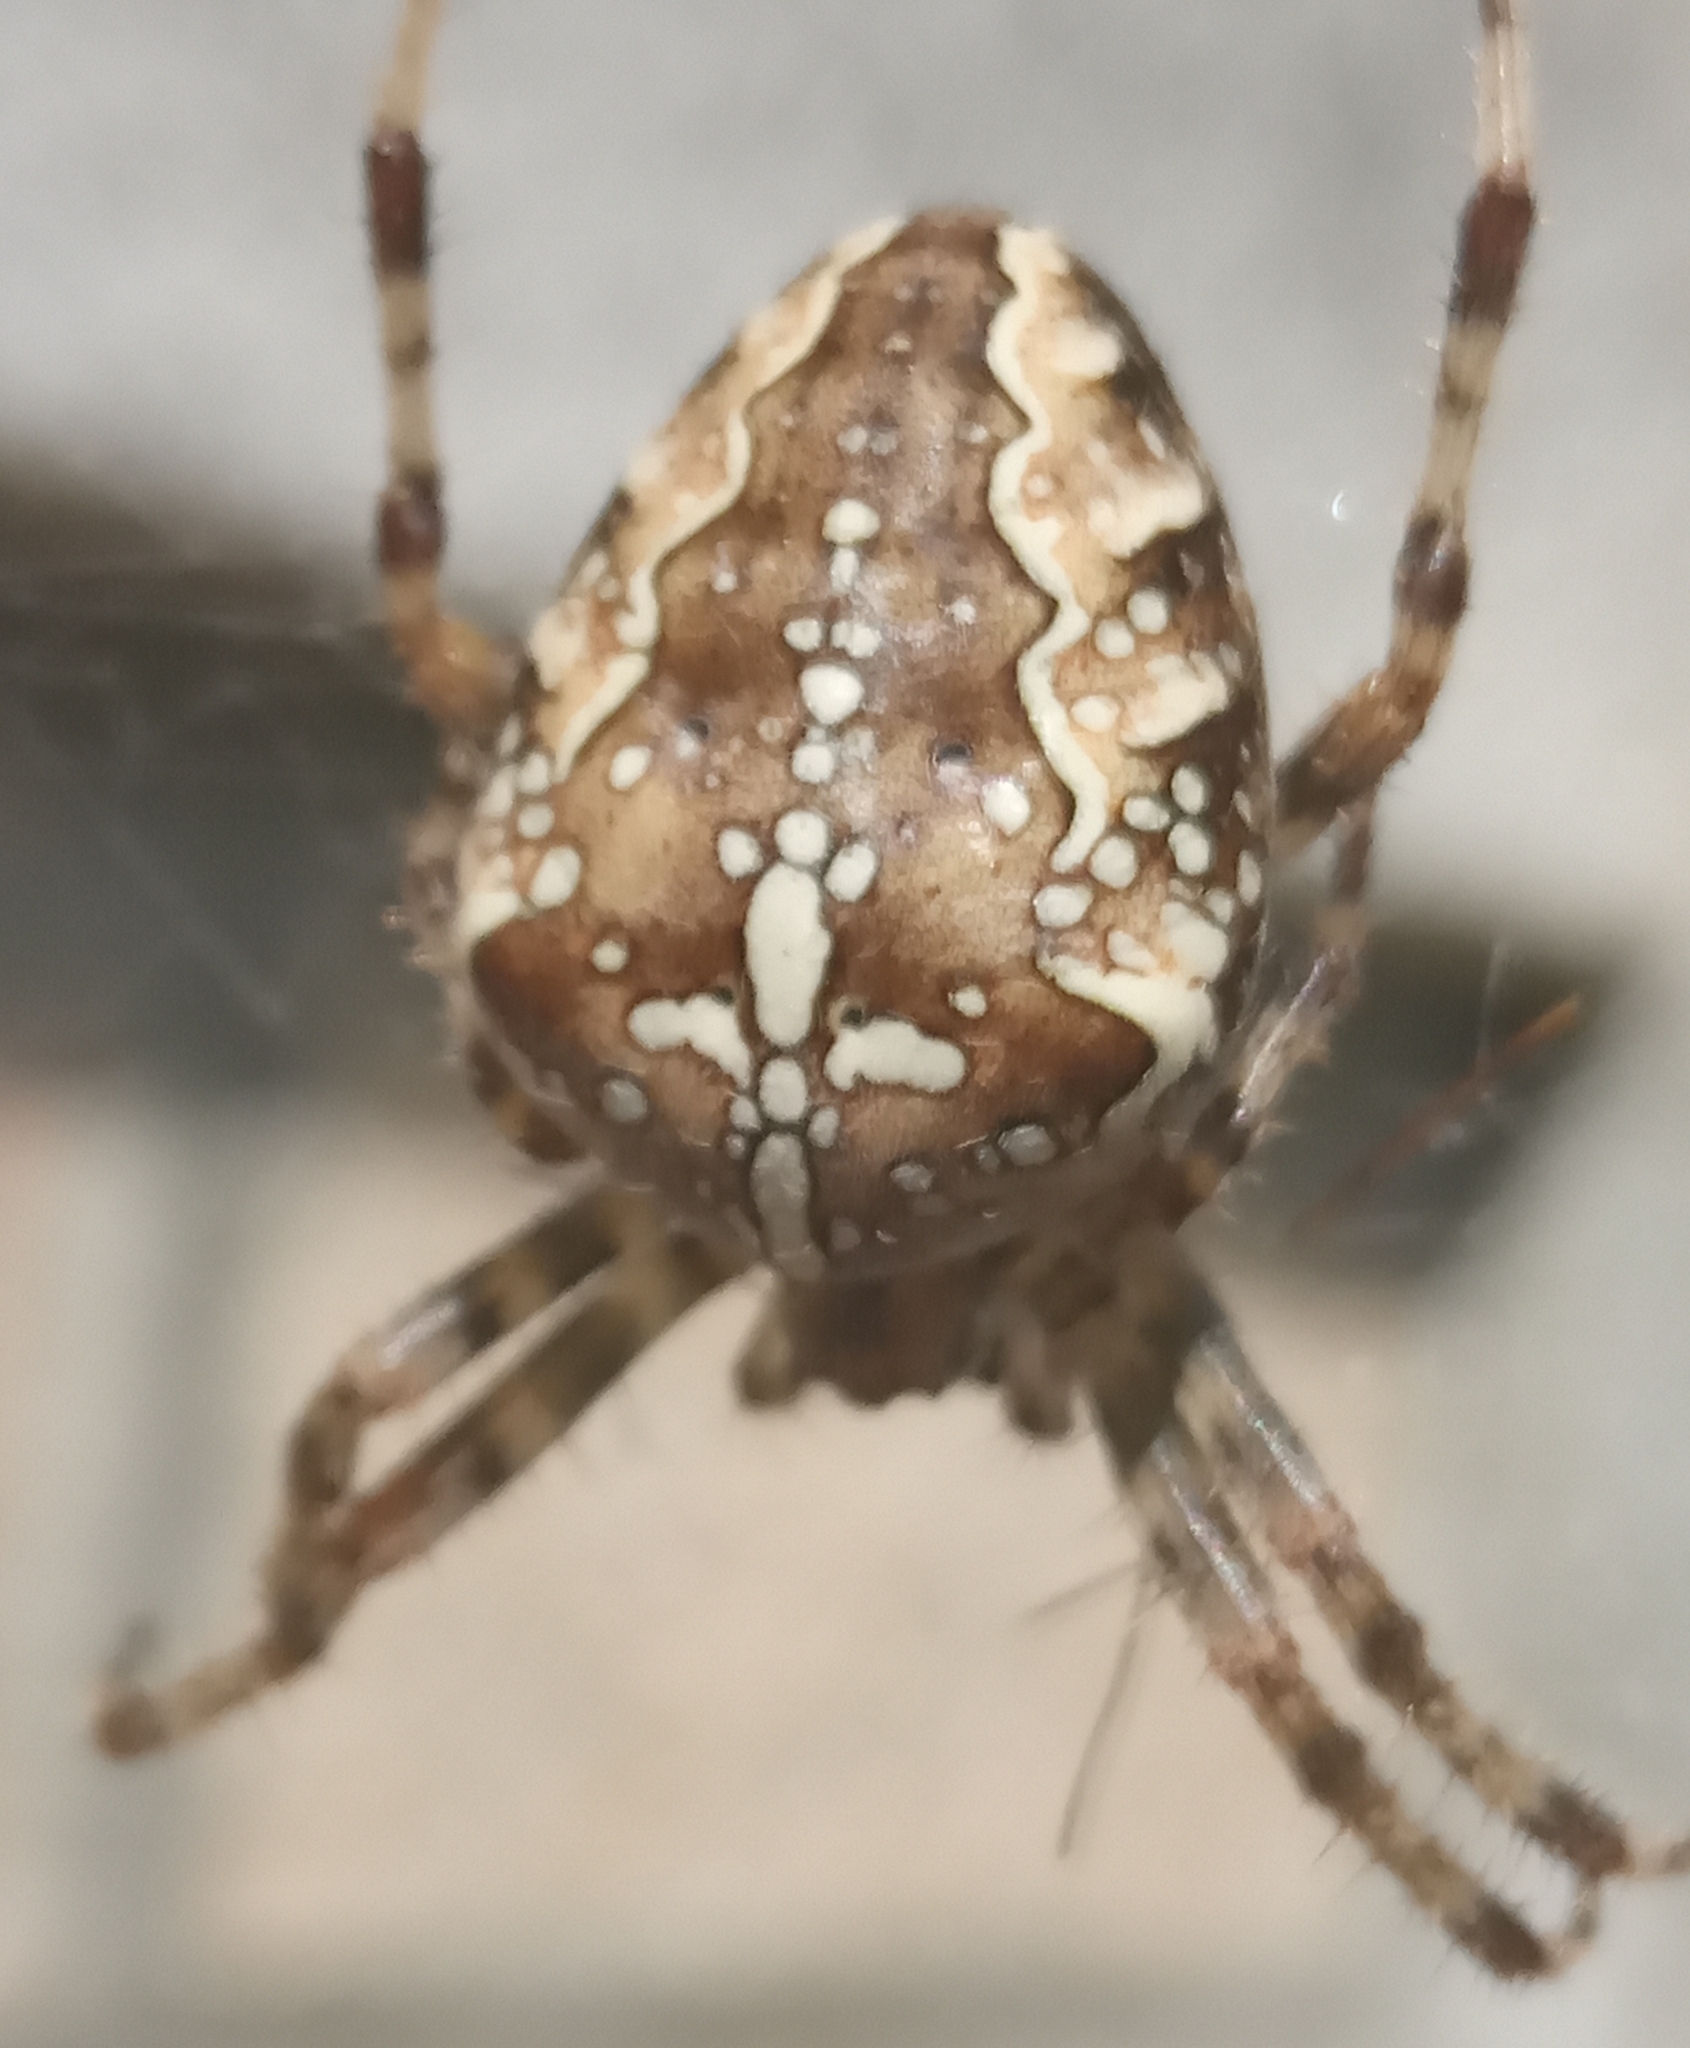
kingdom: Animalia
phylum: Arthropoda
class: Arachnida
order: Araneae
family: Araneidae
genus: Araneus
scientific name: Araneus diadematus
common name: Cross orbweaver
